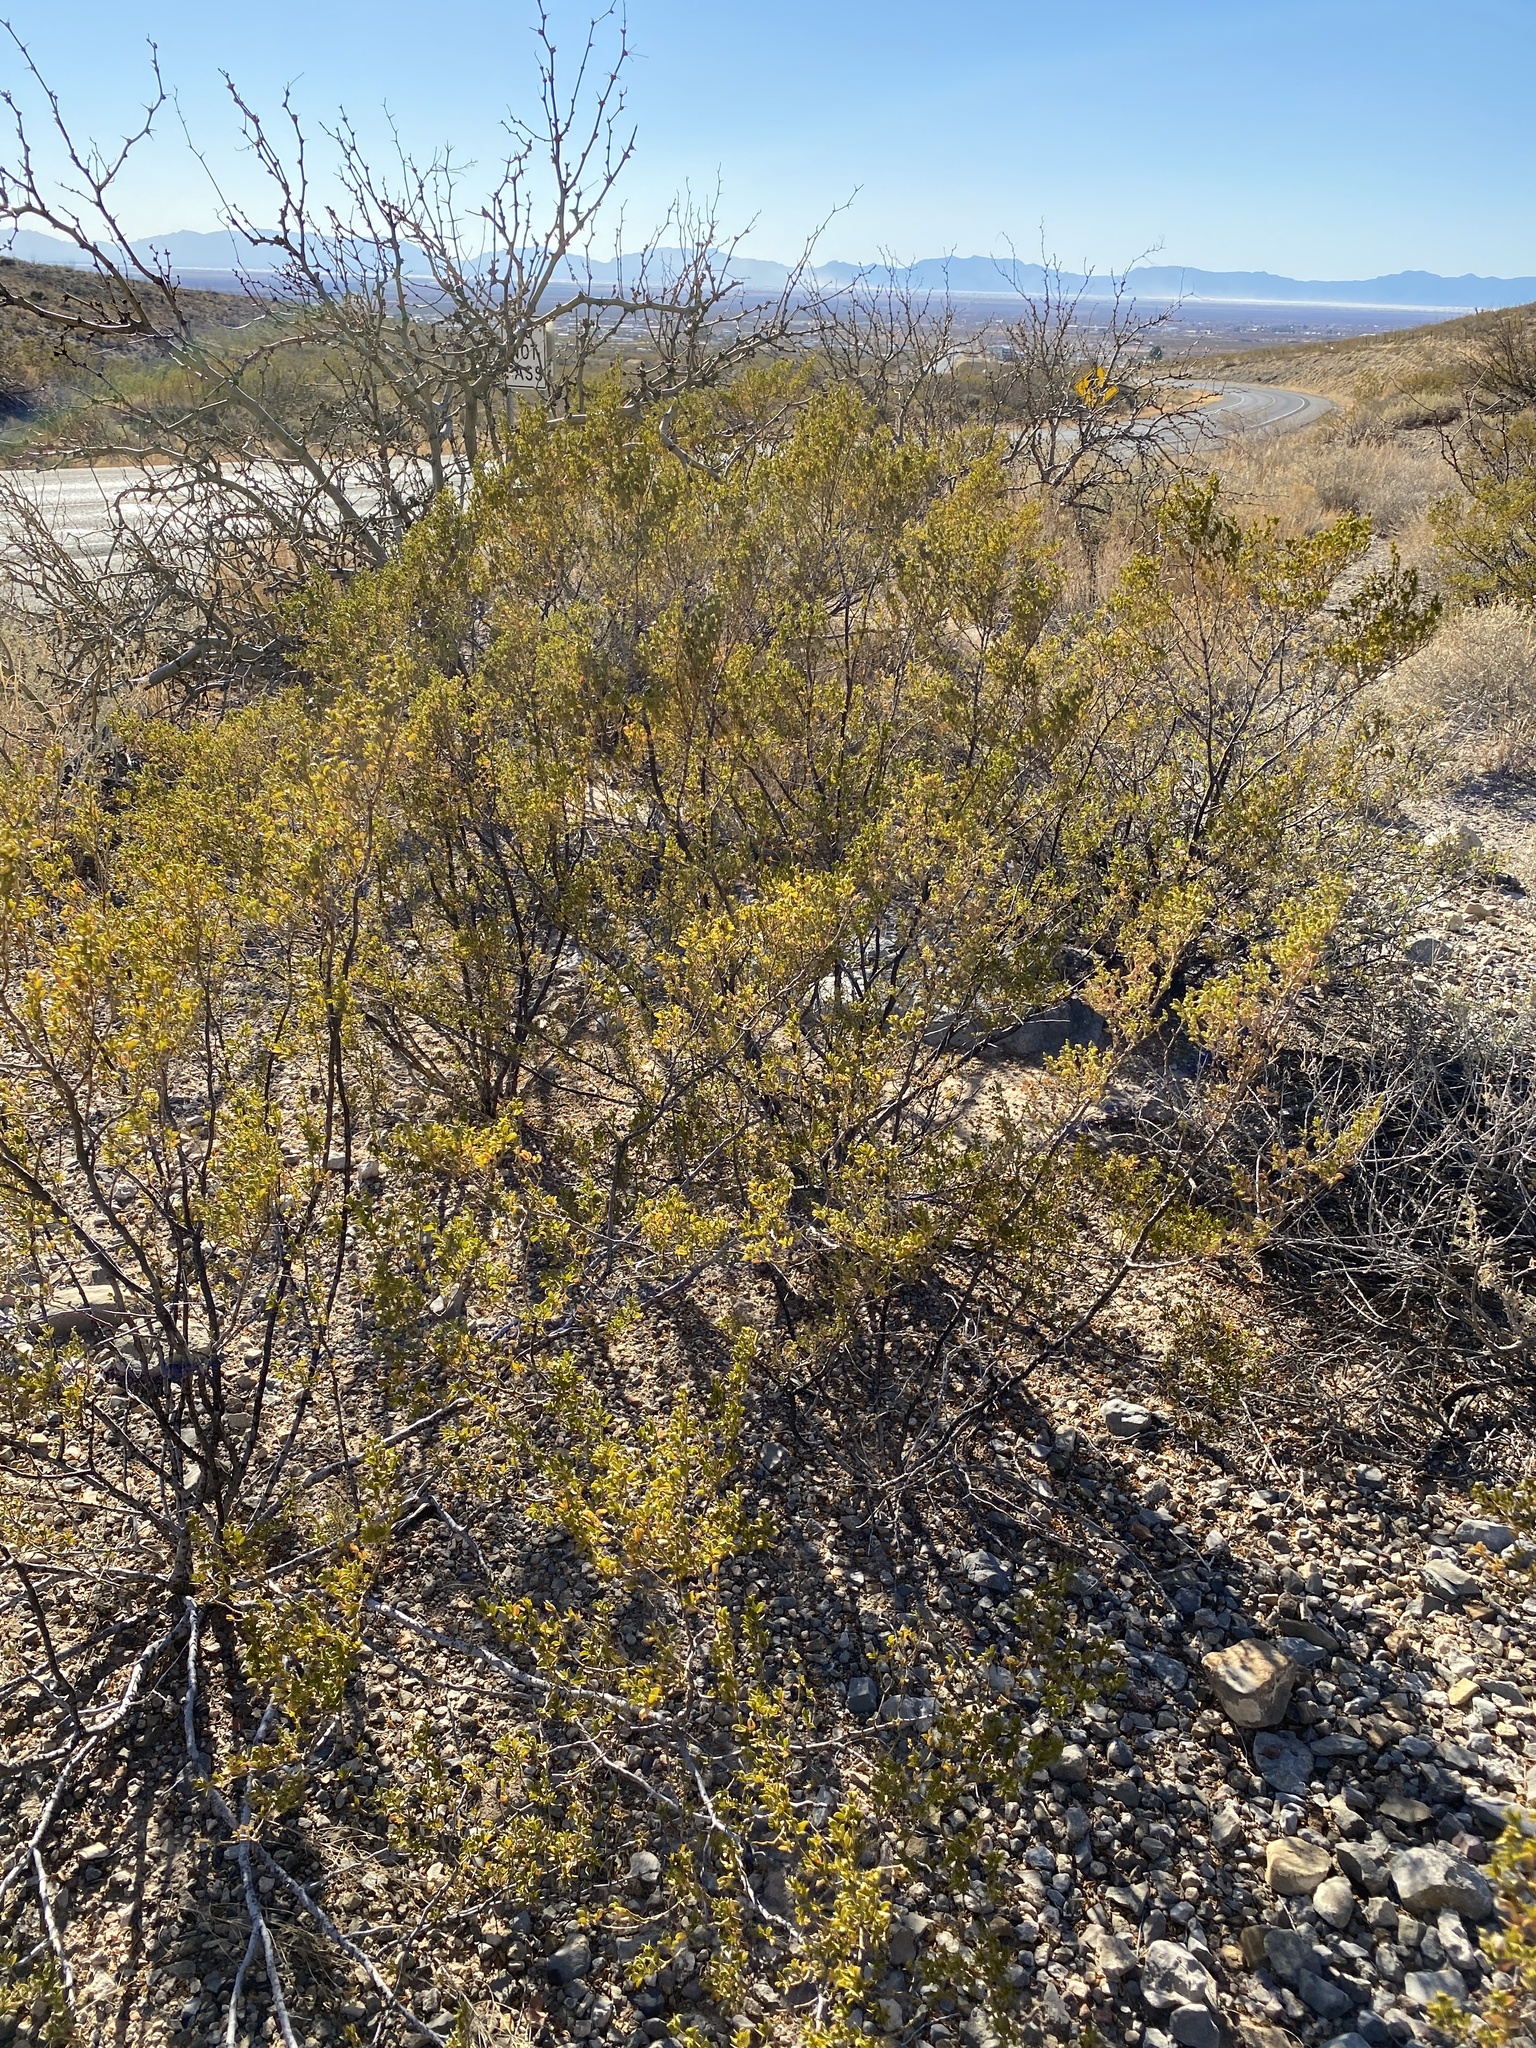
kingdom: Plantae
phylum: Tracheophyta
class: Magnoliopsida
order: Zygophyllales
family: Zygophyllaceae
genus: Larrea
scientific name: Larrea tridentata
